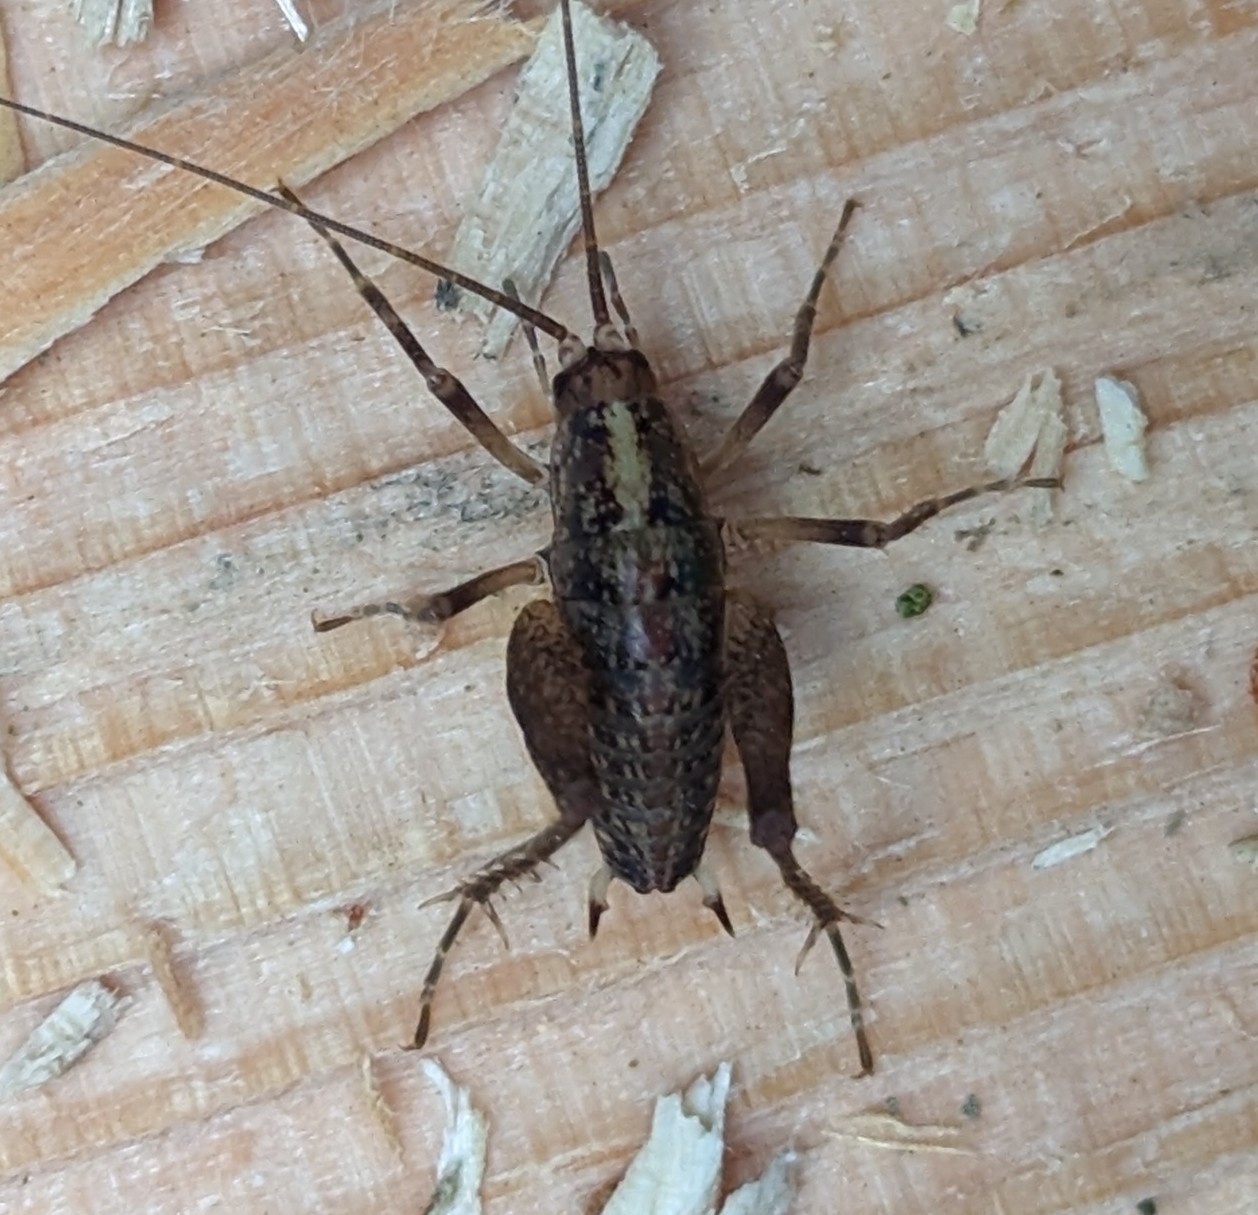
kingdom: Animalia
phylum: Arthropoda
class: Insecta
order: Orthoptera
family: Rhaphidophoridae
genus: Pristoceuthophilus
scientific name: Pristoceuthophilus celatus
